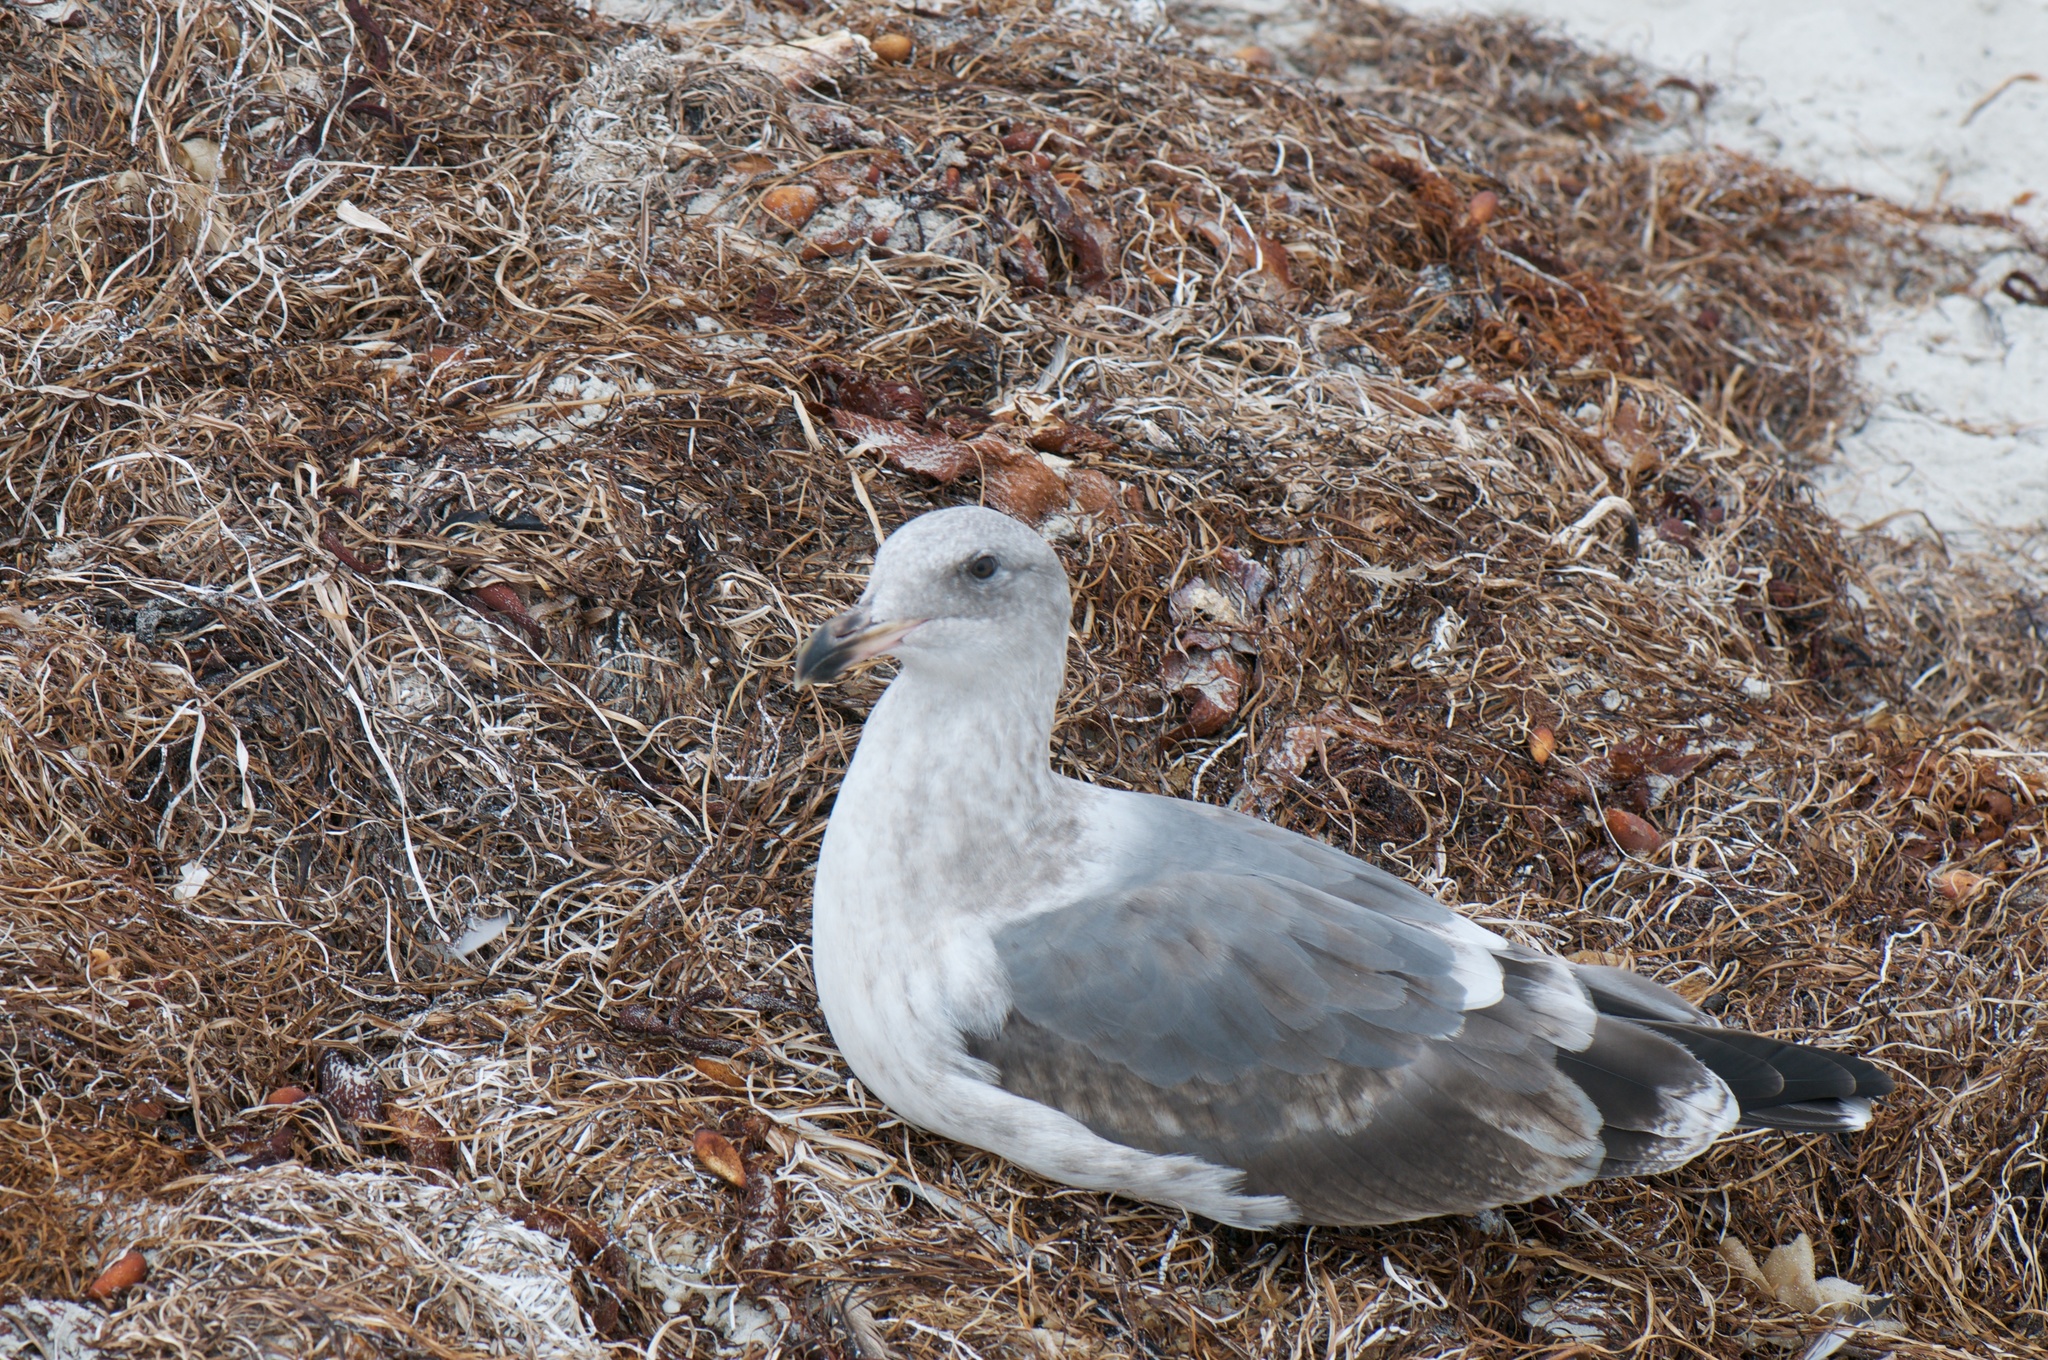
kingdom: Animalia
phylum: Chordata
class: Aves
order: Charadriiformes
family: Laridae
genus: Larus
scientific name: Larus occidentalis
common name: Western gull
